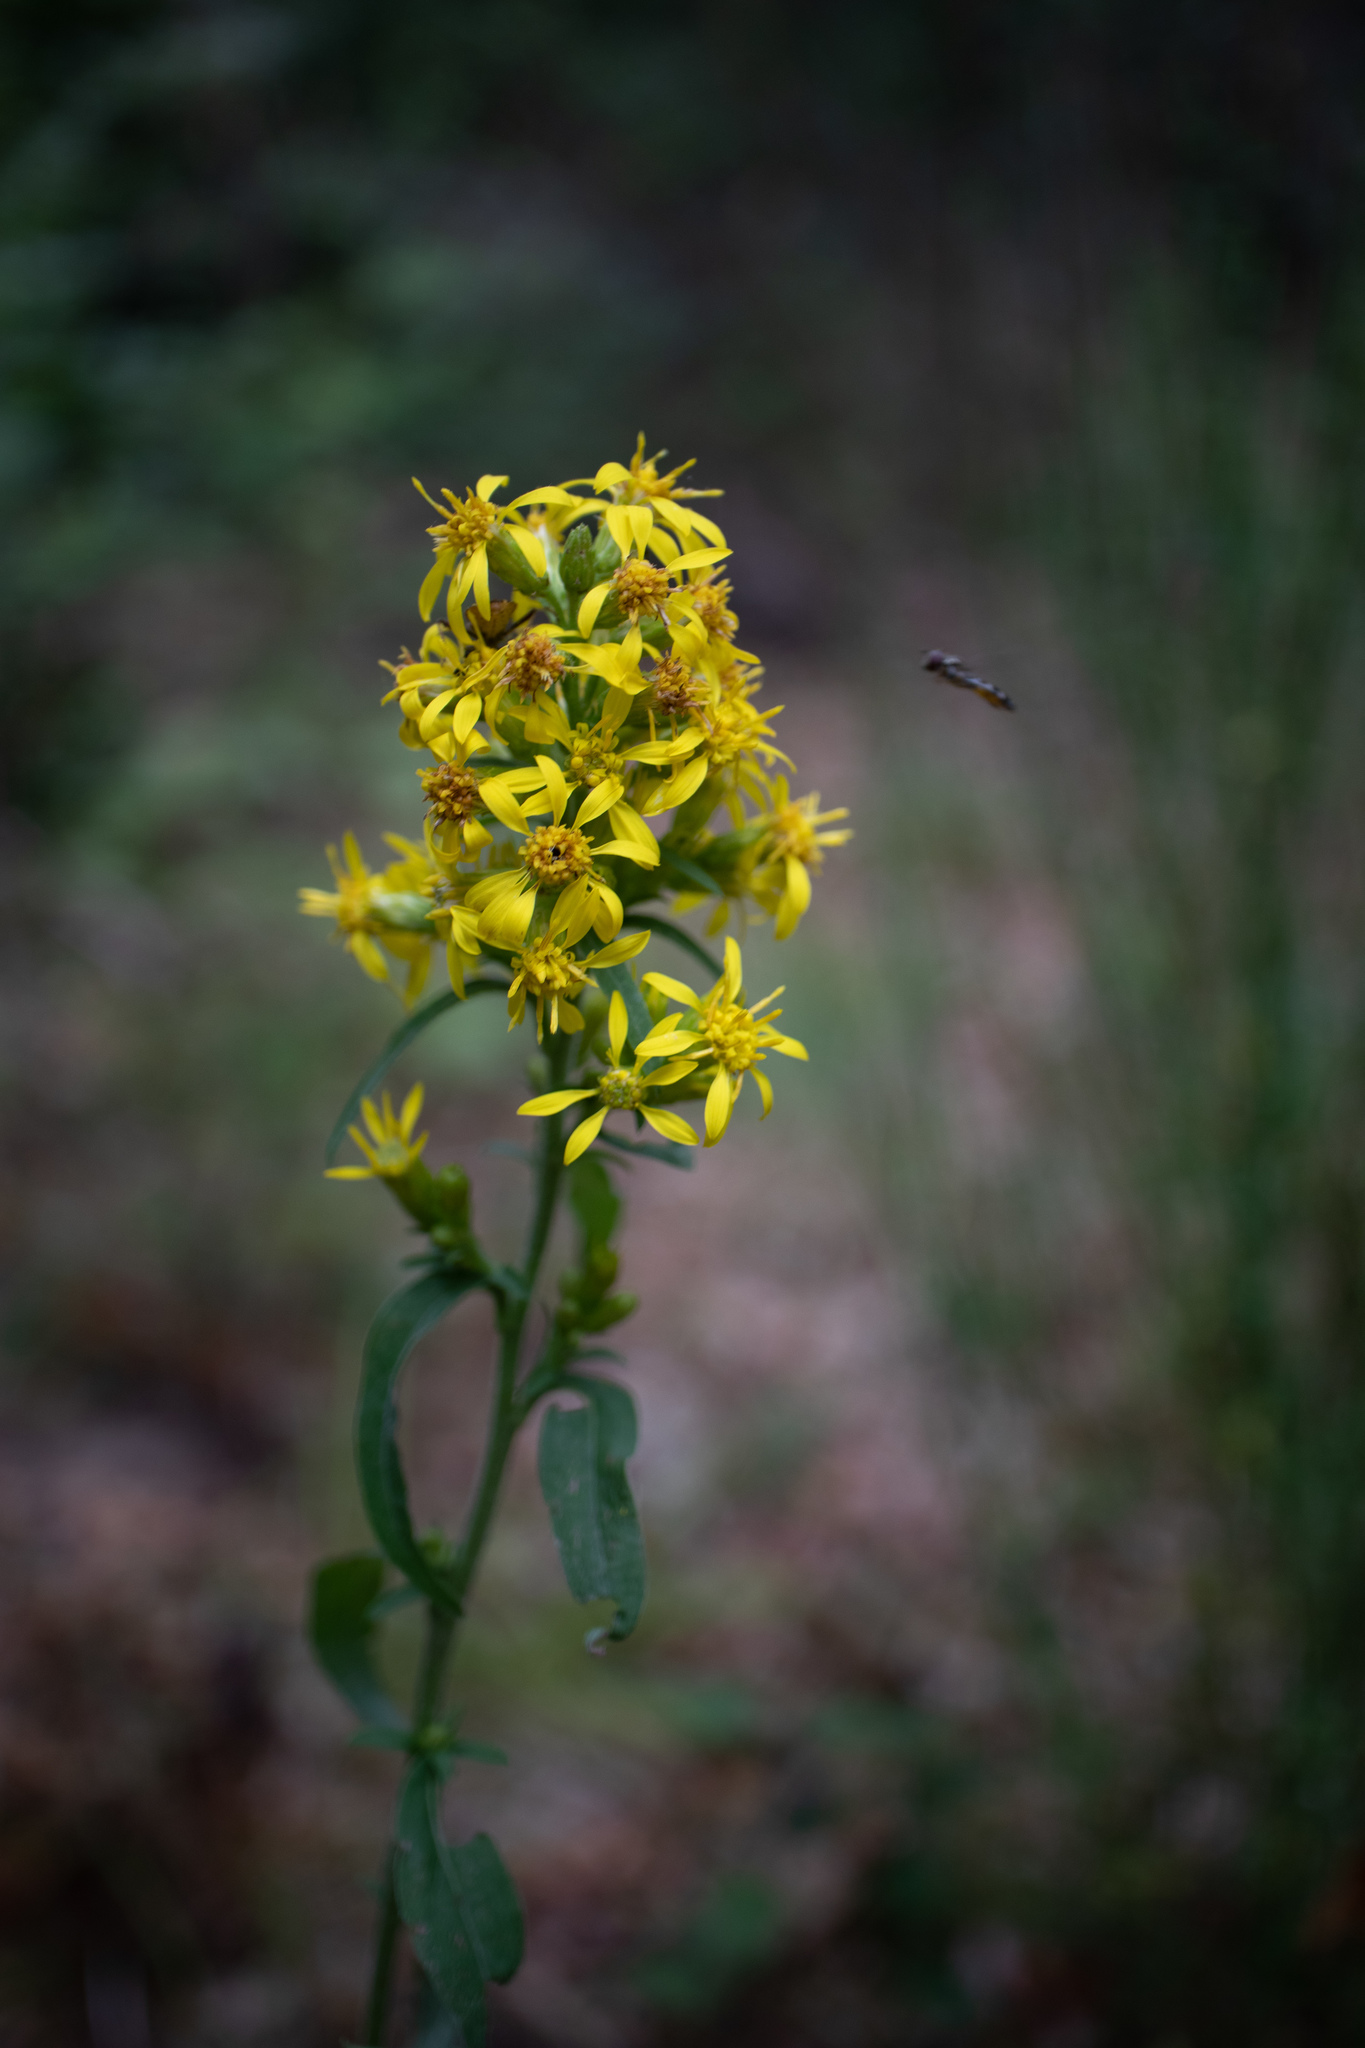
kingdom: Plantae
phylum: Tracheophyta
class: Magnoliopsida
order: Asterales
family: Asteraceae
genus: Jacobaea
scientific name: Jacobaea vulgaris
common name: Stinking willie
